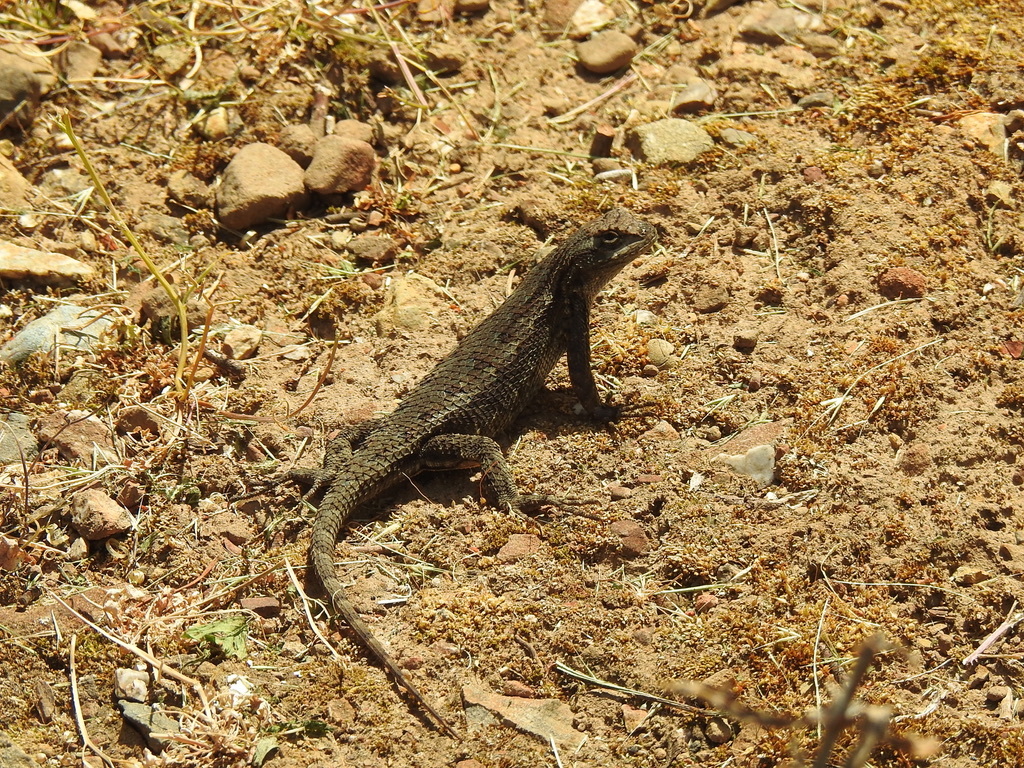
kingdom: Animalia
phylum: Chordata
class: Squamata
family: Phrynosomatidae
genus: Sceloporus
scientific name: Sceloporus occidentalis
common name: Western fence lizard
